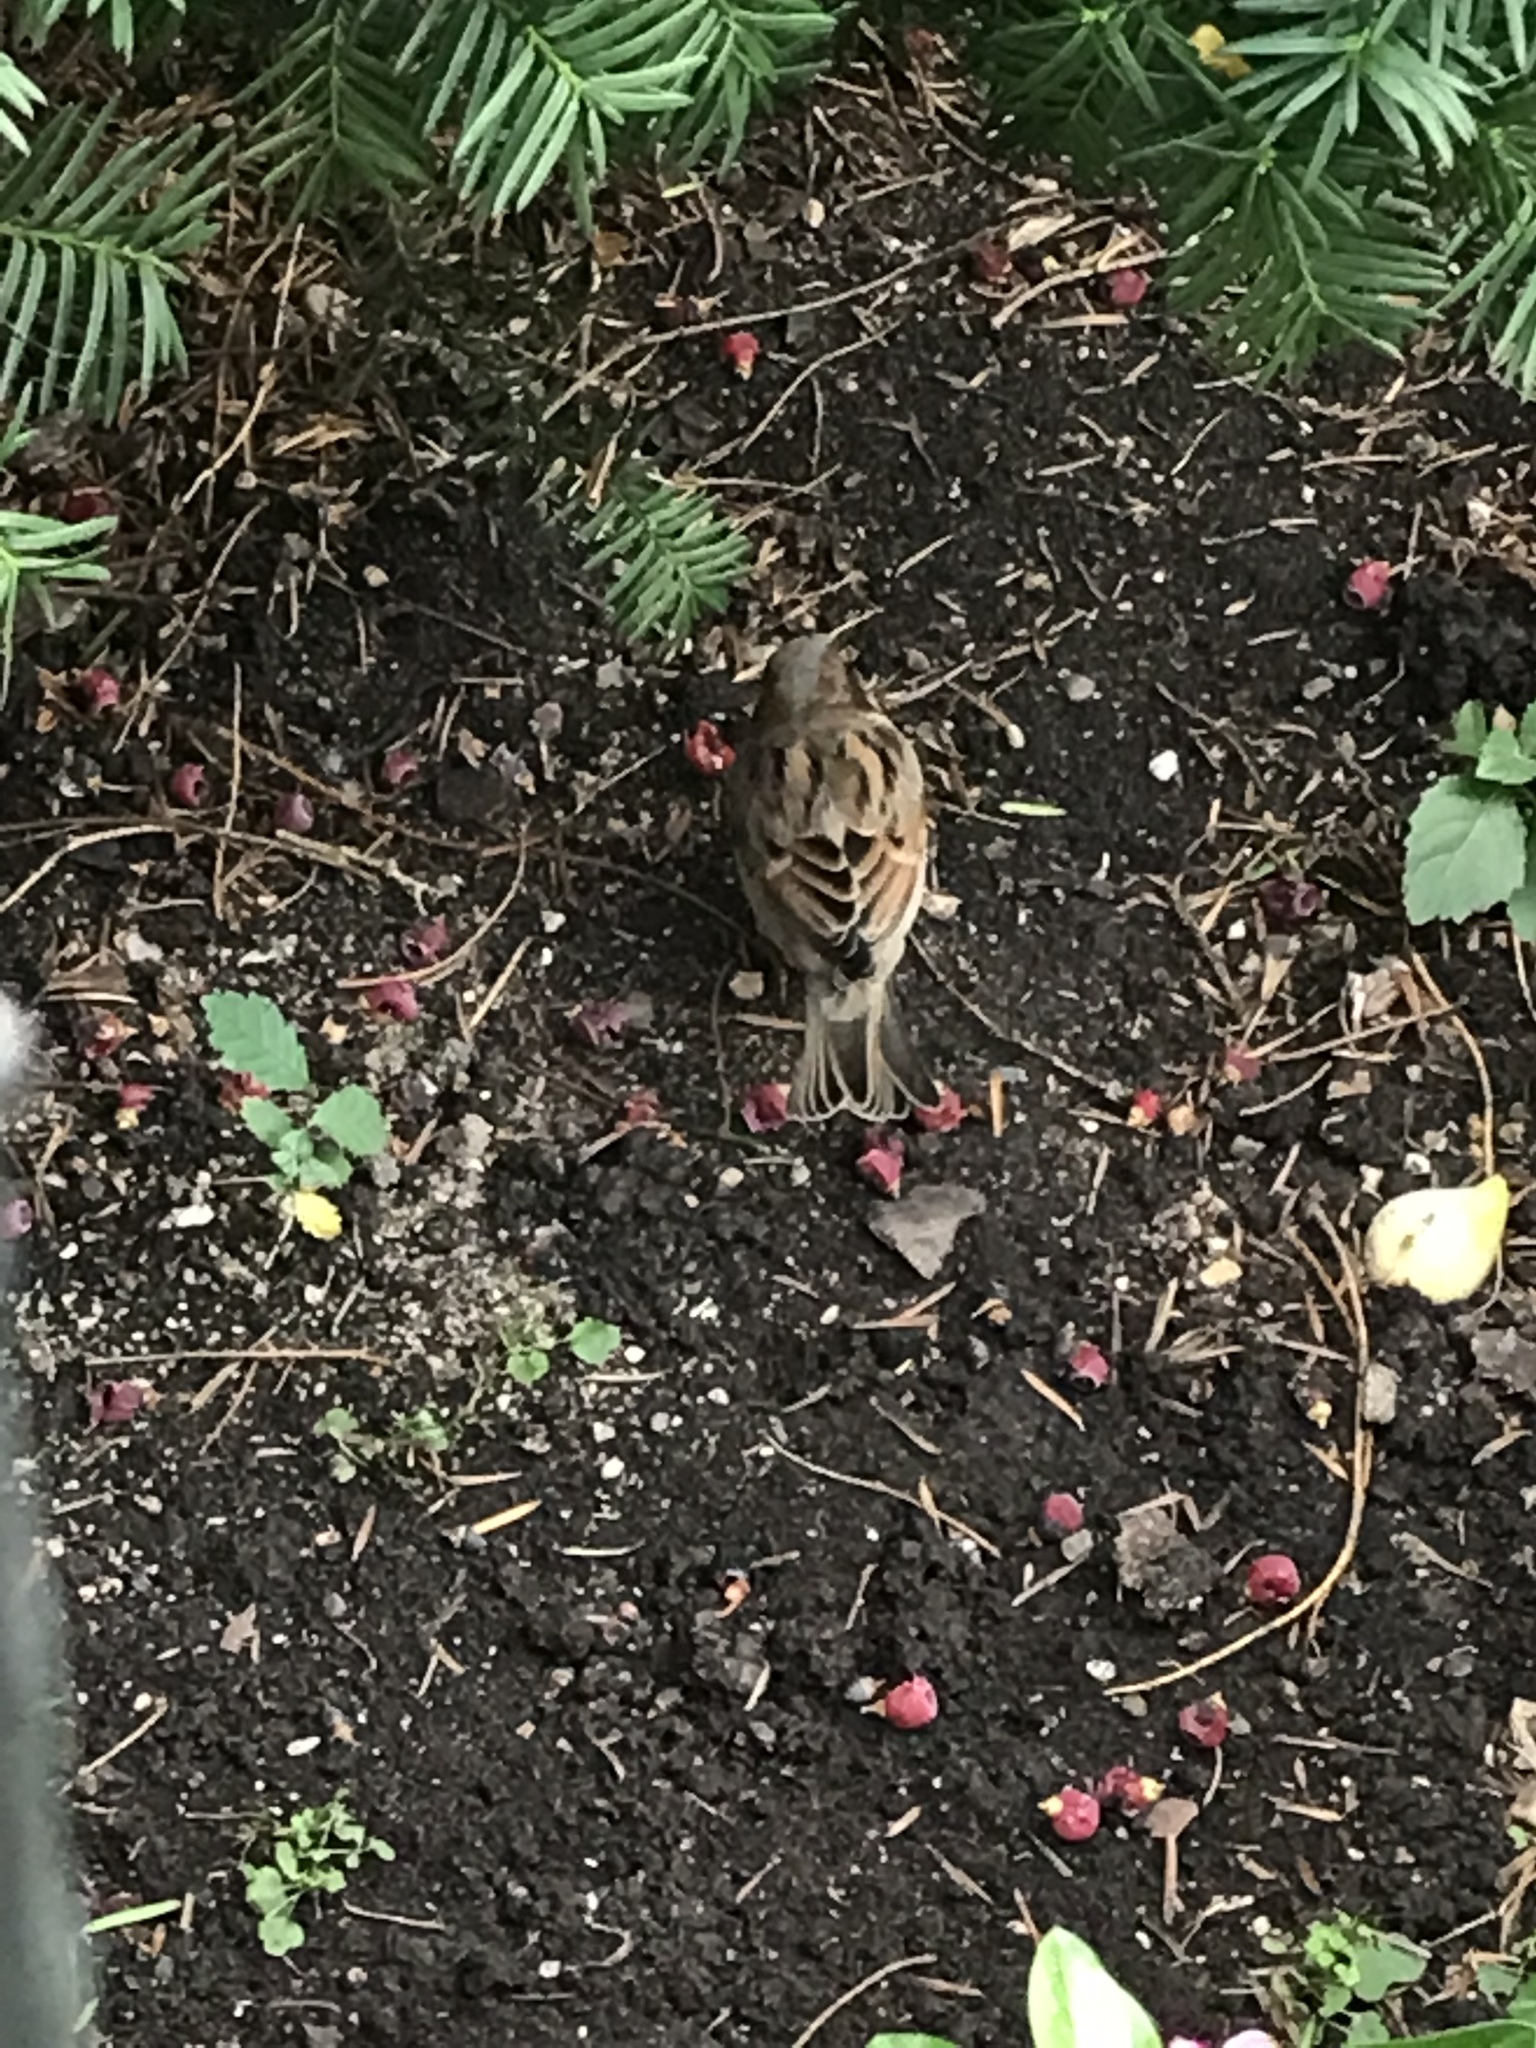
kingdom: Animalia
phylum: Chordata
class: Aves
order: Passeriformes
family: Passeridae
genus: Passer
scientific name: Passer domesticus
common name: House sparrow
